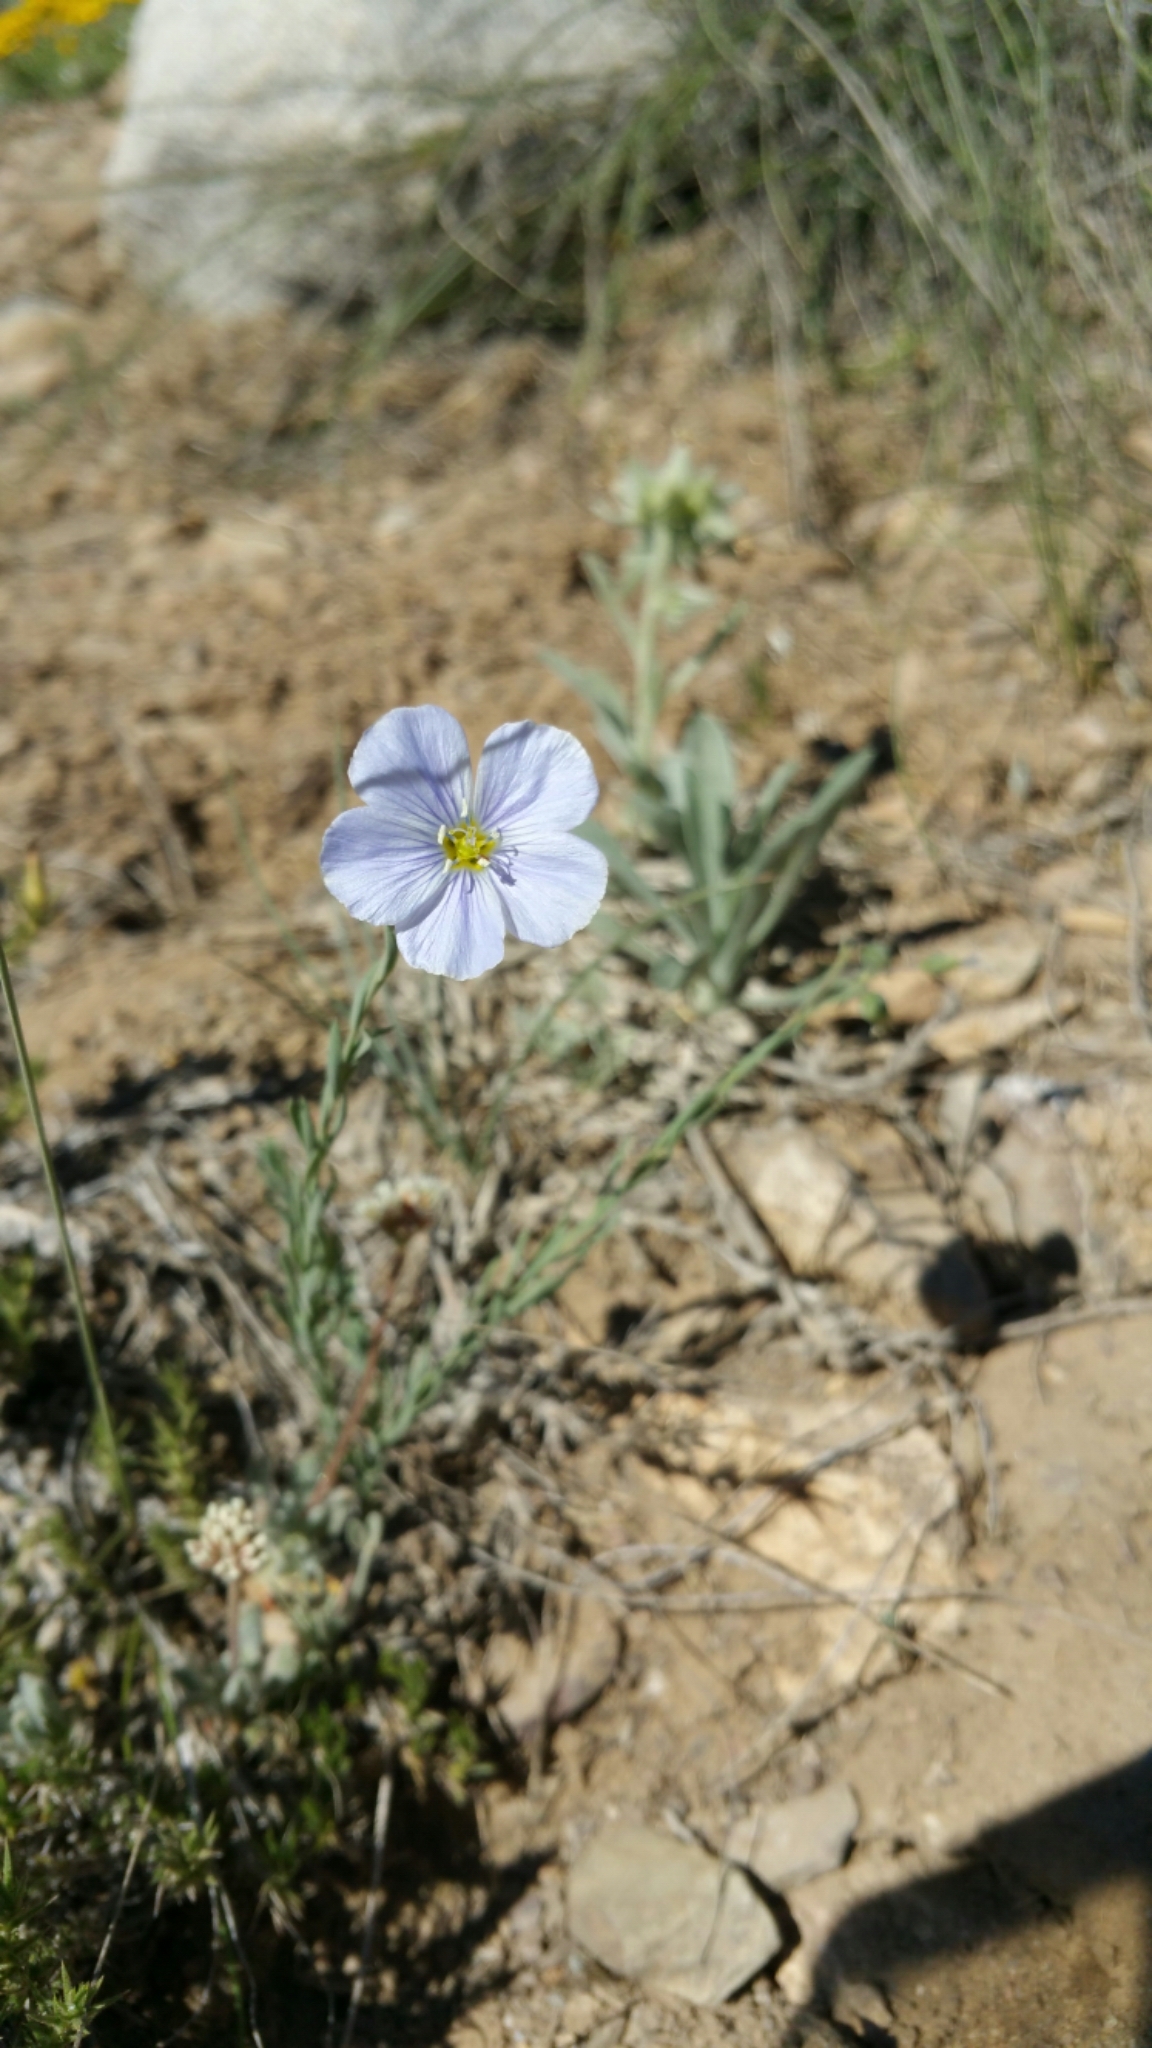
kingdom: Plantae
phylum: Tracheophyta
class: Magnoliopsida
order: Malpighiales
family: Linaceae
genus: Linum
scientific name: Linum lewisii
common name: Prairie flax
